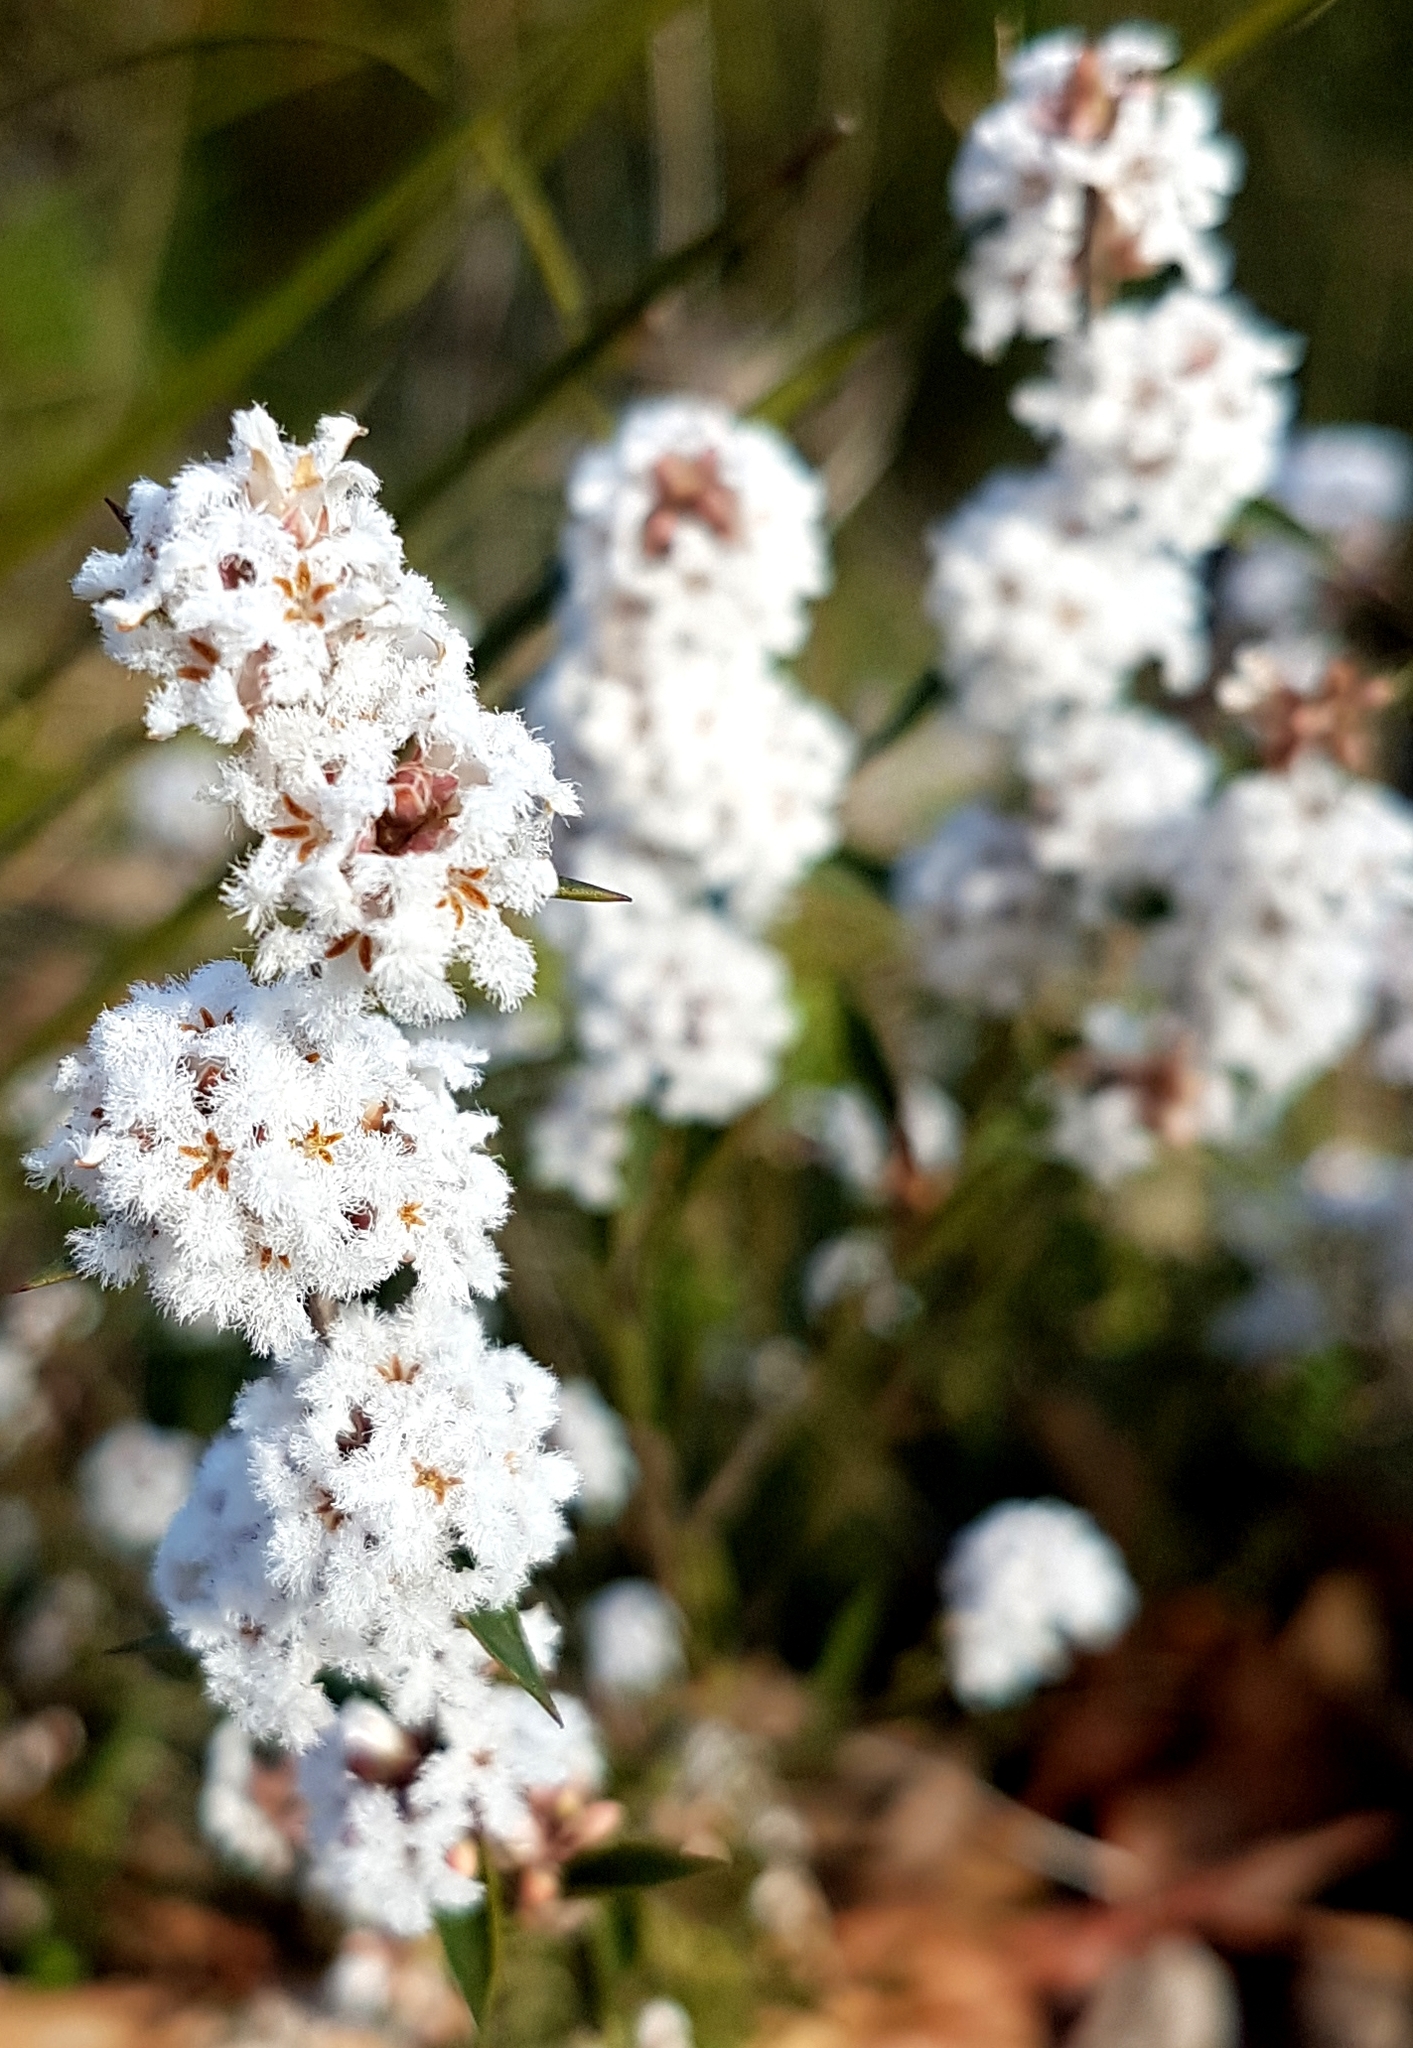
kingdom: Plantae
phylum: Tracheophyta
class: Magnoliopsida
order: Ericales
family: Ericaceae
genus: Leucopogon
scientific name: Leucopogon virgatus
